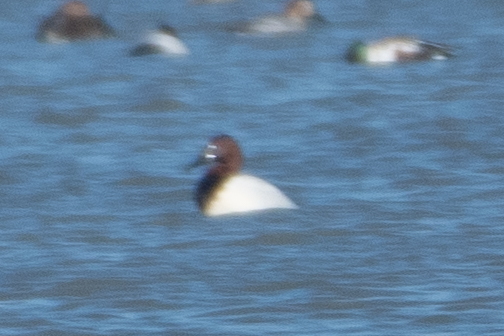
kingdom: Animalia
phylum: Chordata
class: Aves
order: Anseriformes
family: Anatidae
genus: Aythya
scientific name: Aythya valisineria
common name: Canvasback
